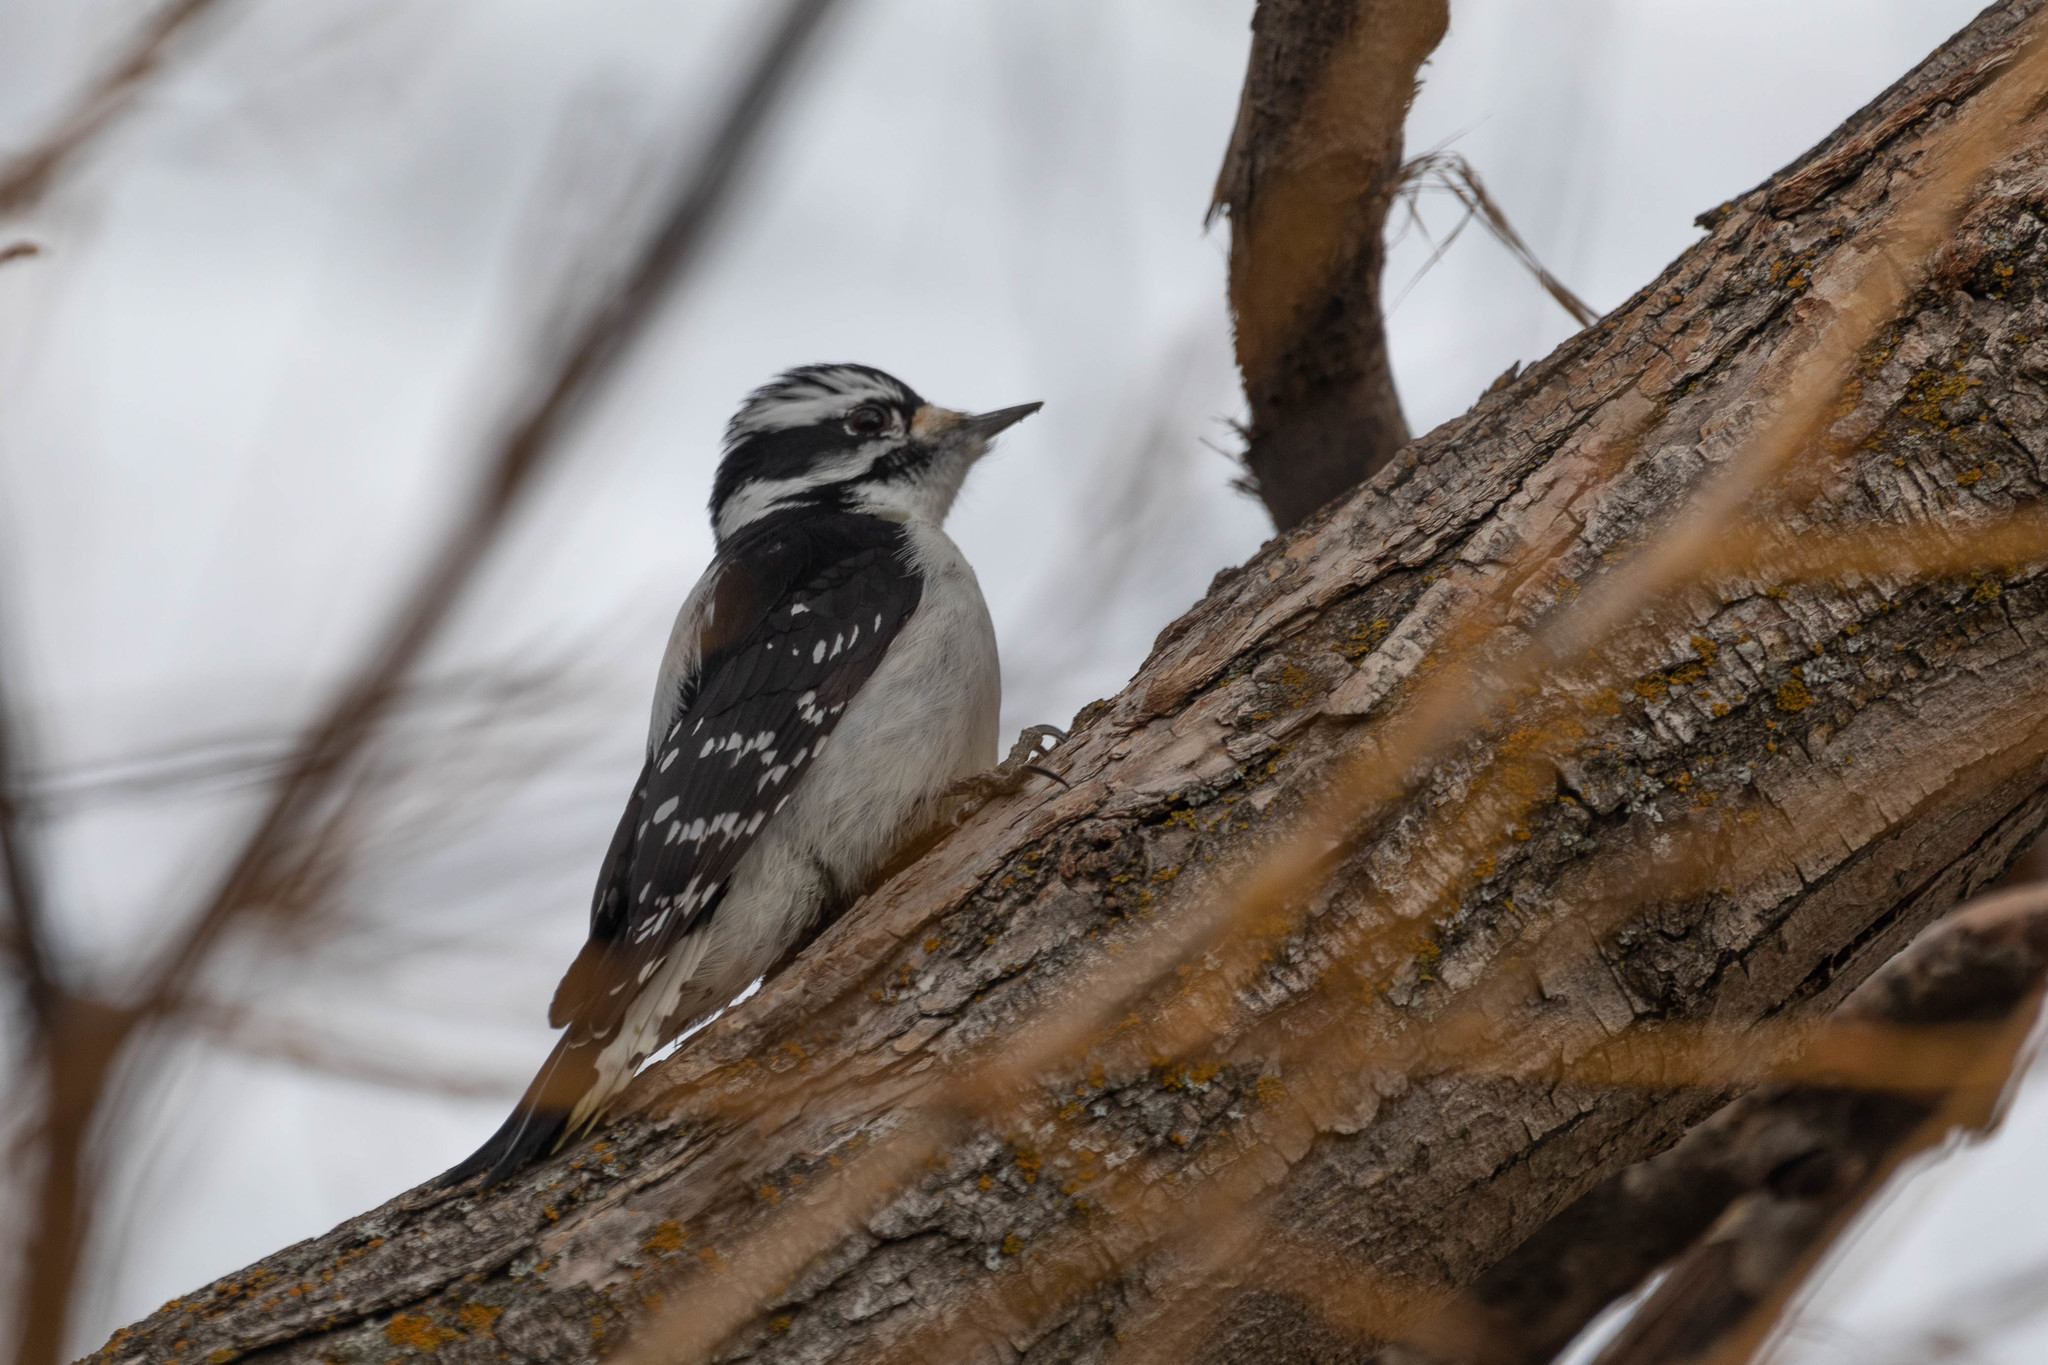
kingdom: Animalia
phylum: Chordata
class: Aves
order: Piciformes
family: Picidae
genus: Dryobates
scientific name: Dryobates pubescens
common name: Downy woodpecker
